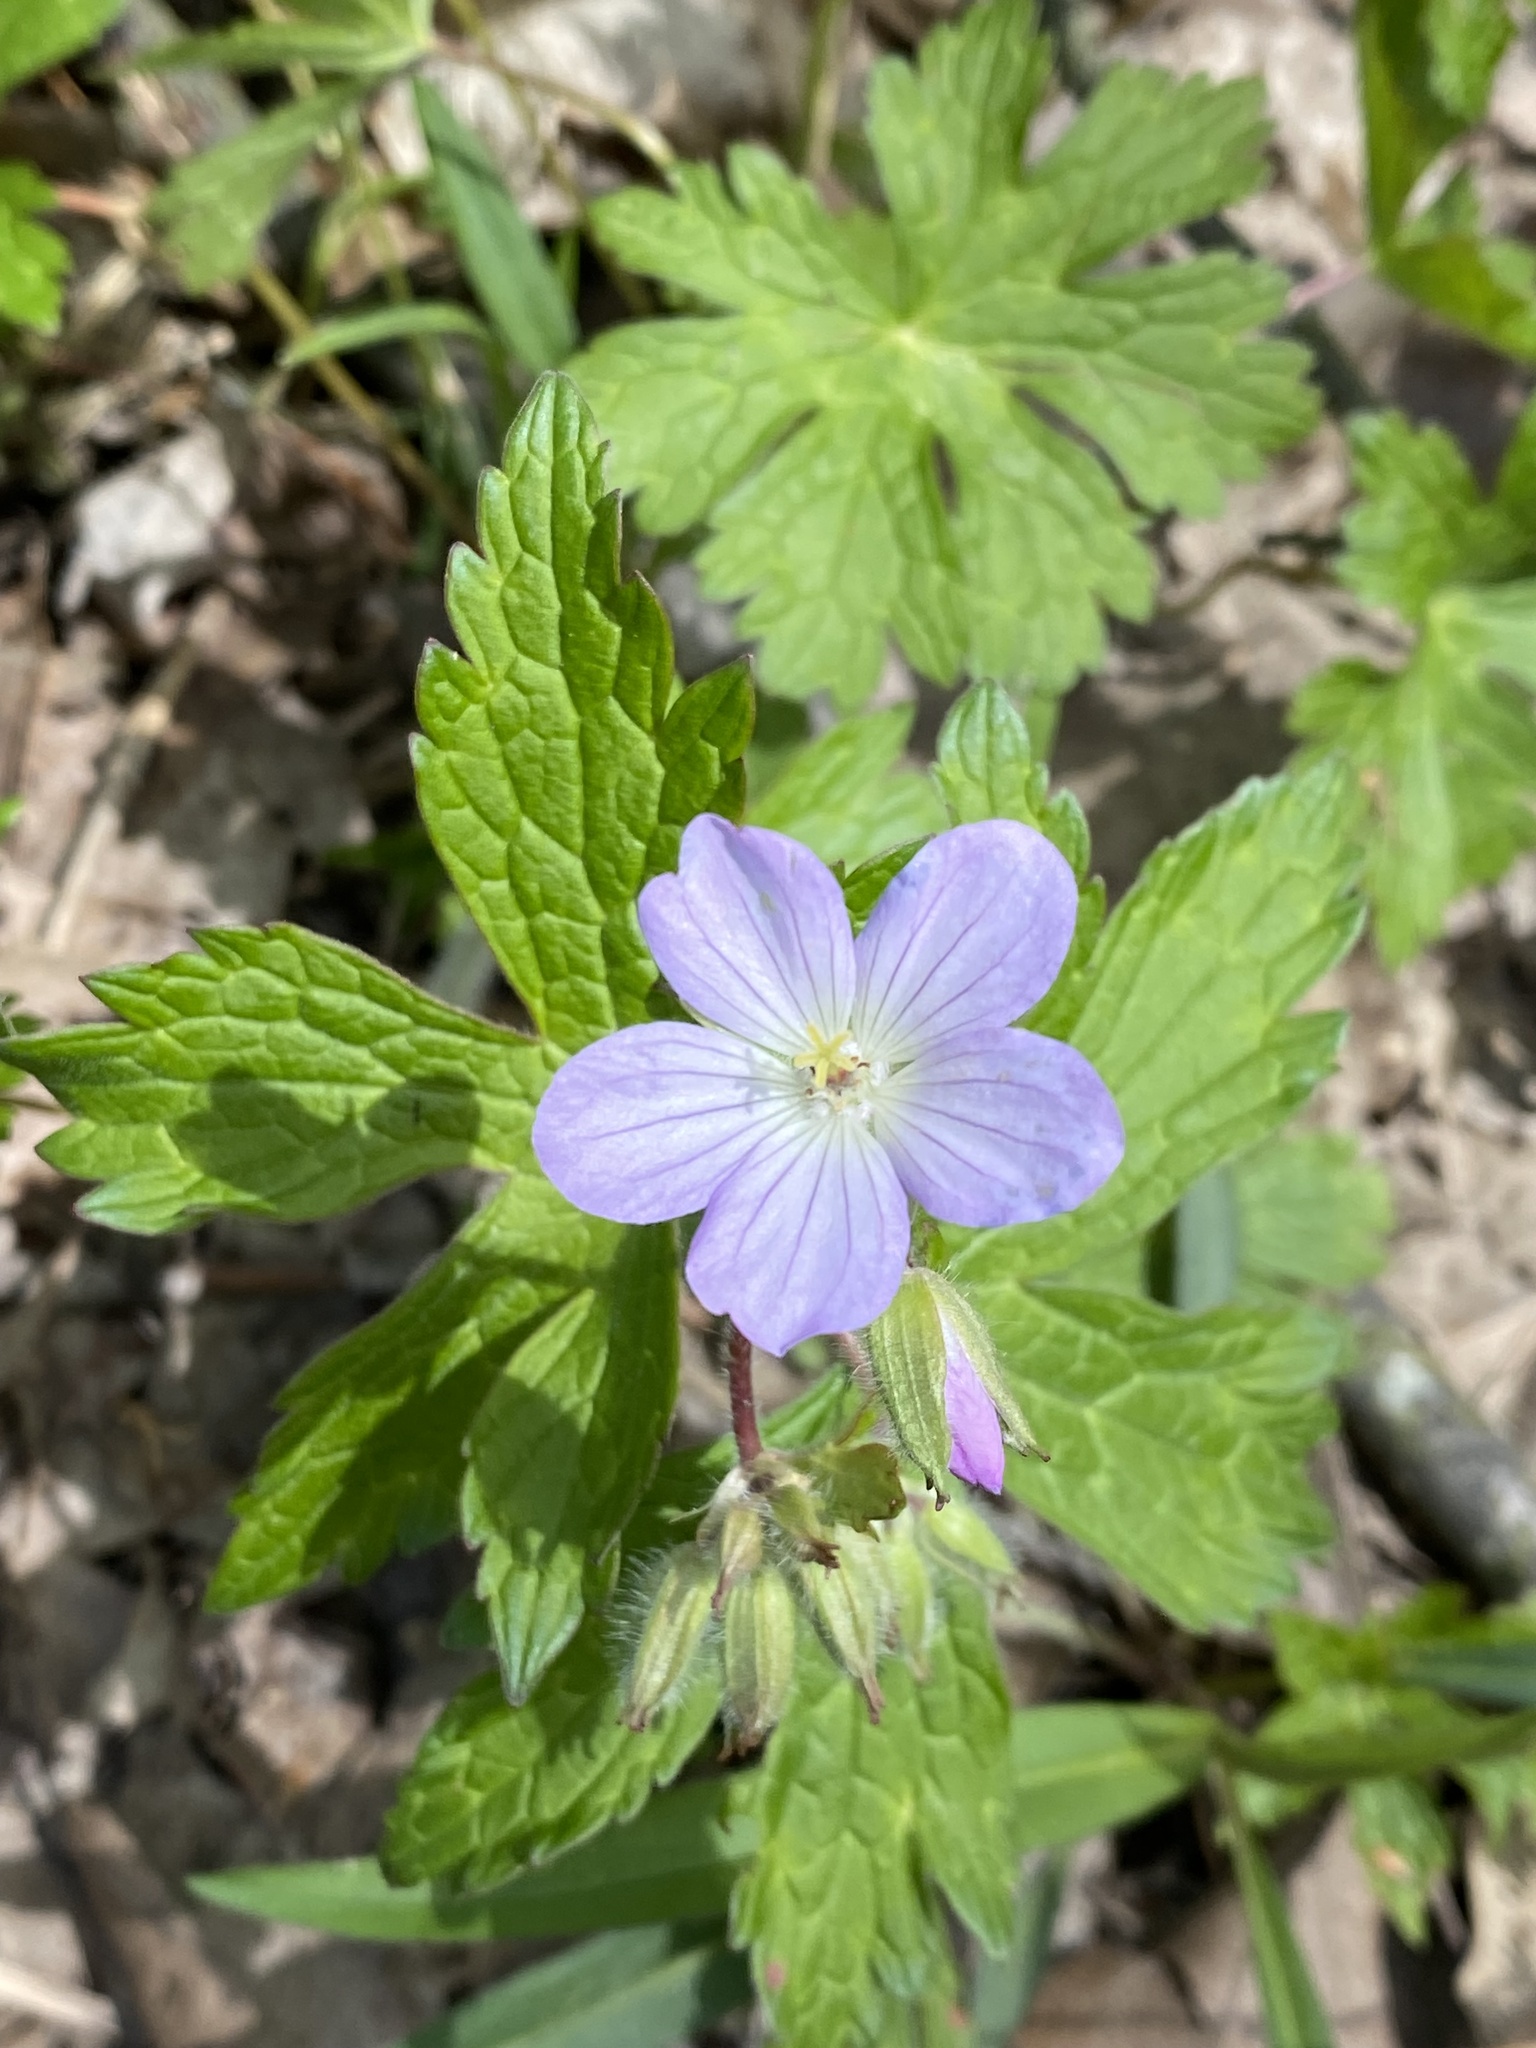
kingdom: Plantae
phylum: Tracheophyta
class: Magnoliopsida
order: Geraniales
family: Geraniaceae
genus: Geranium
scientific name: Geranium maculatum
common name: Spotted geranium
